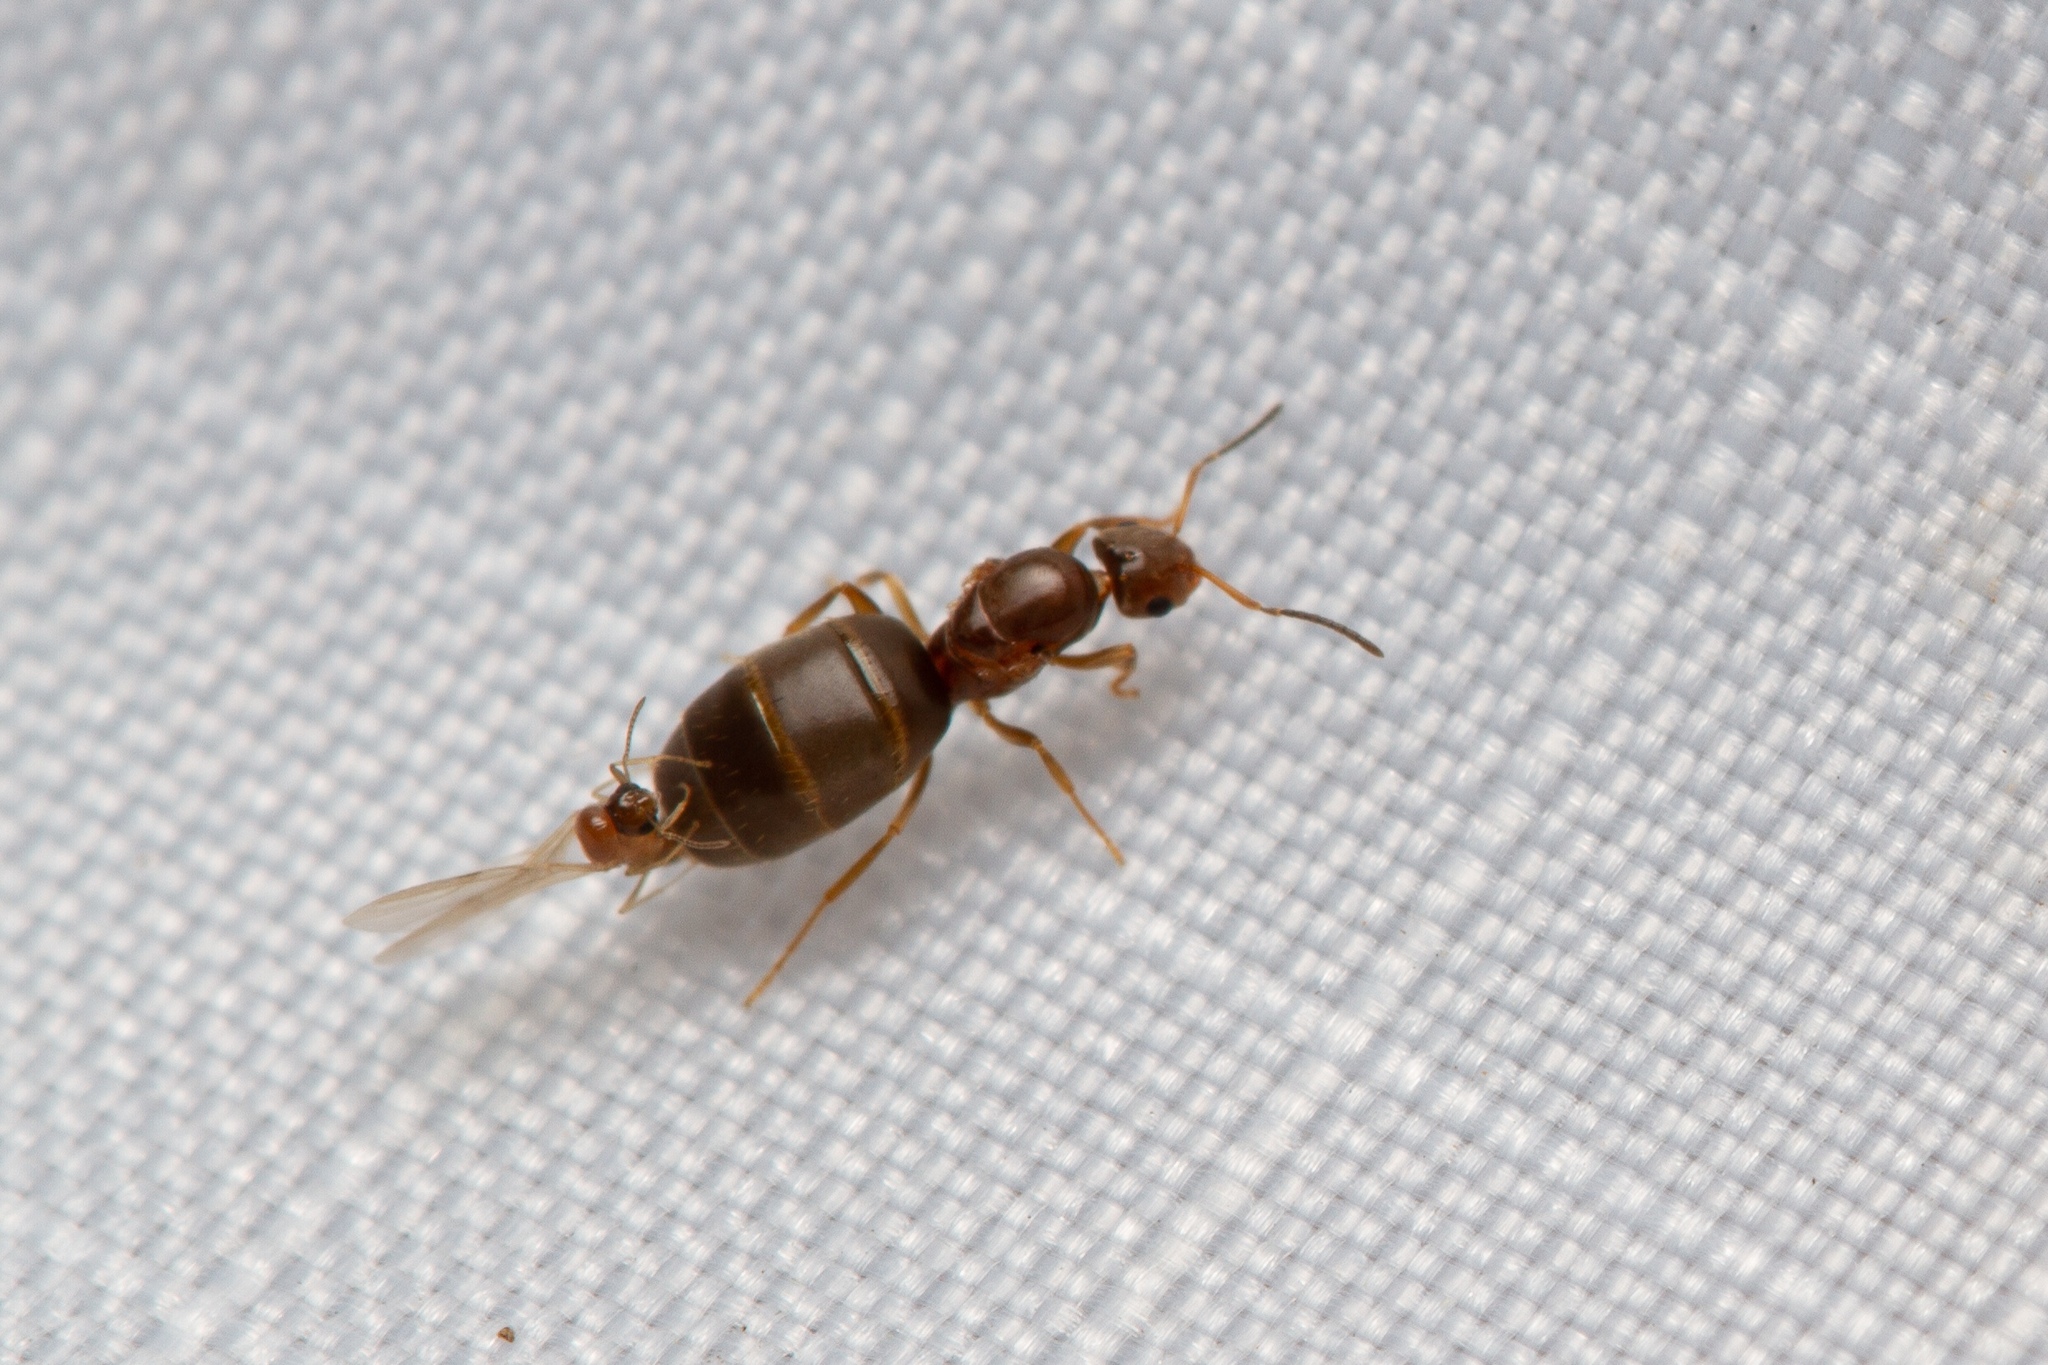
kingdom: Animalia
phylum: Arthropoda
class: Insecta
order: Hymenoptera
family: Formicidae
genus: Brachymyrmex
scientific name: Brachymyrmex patagonicus
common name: Dark rover ant
